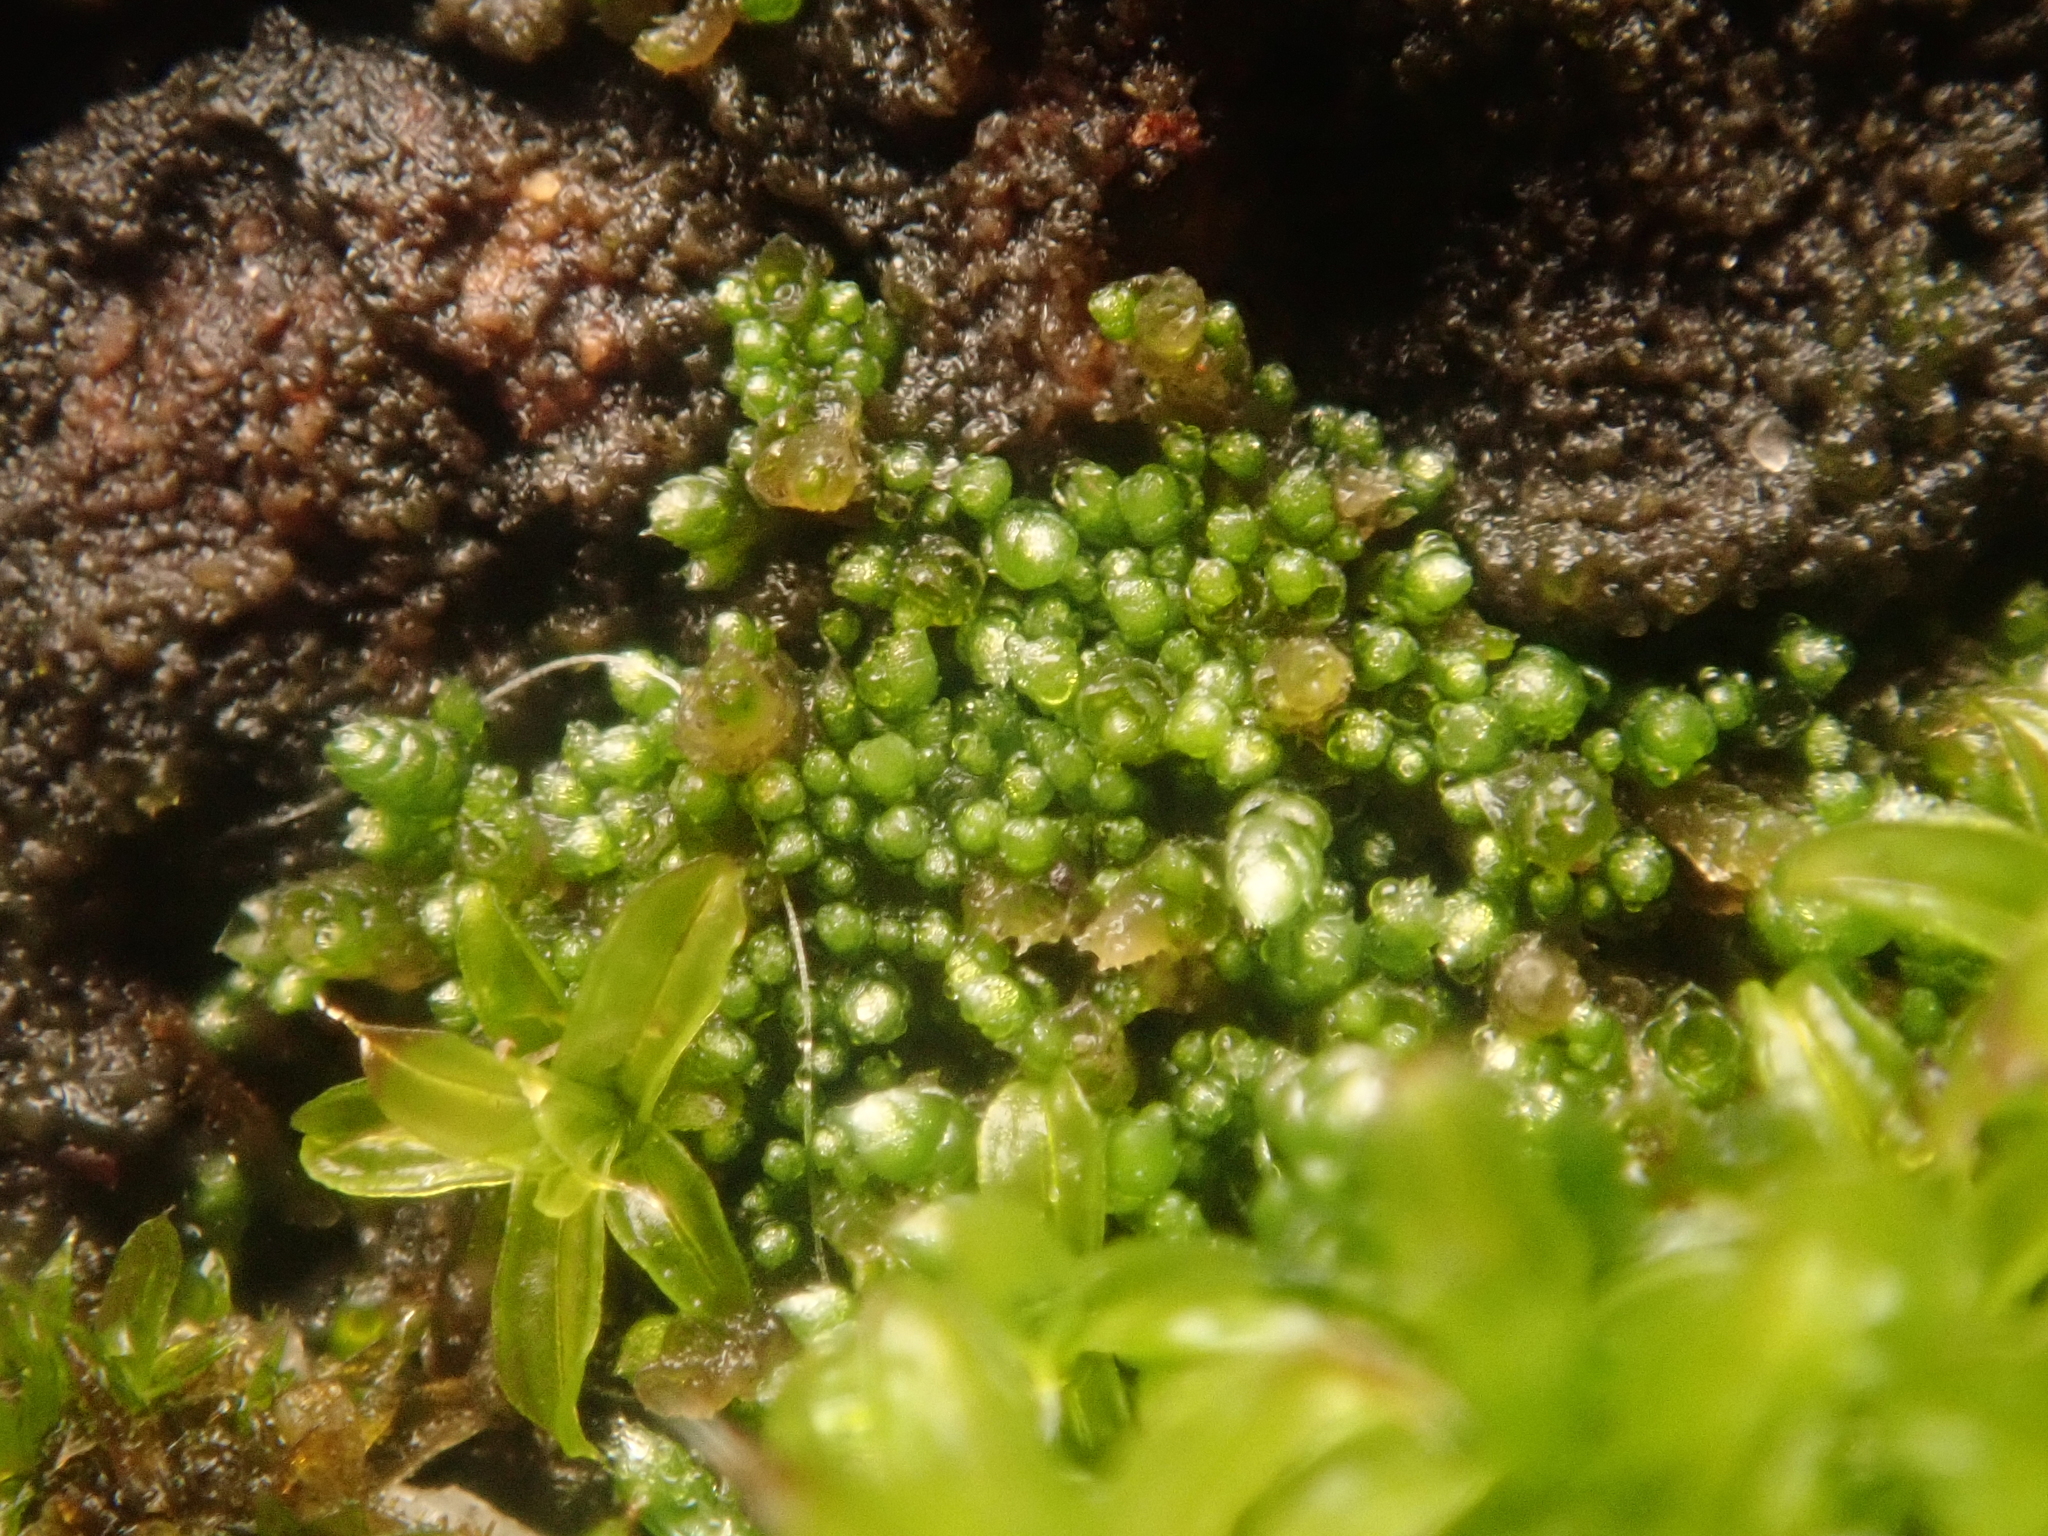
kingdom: Plantae
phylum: Bryophyta
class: Bryopsida
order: Bryales
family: Bryaceae
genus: Bryum
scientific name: Bryum argenteum
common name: Silver-moss
